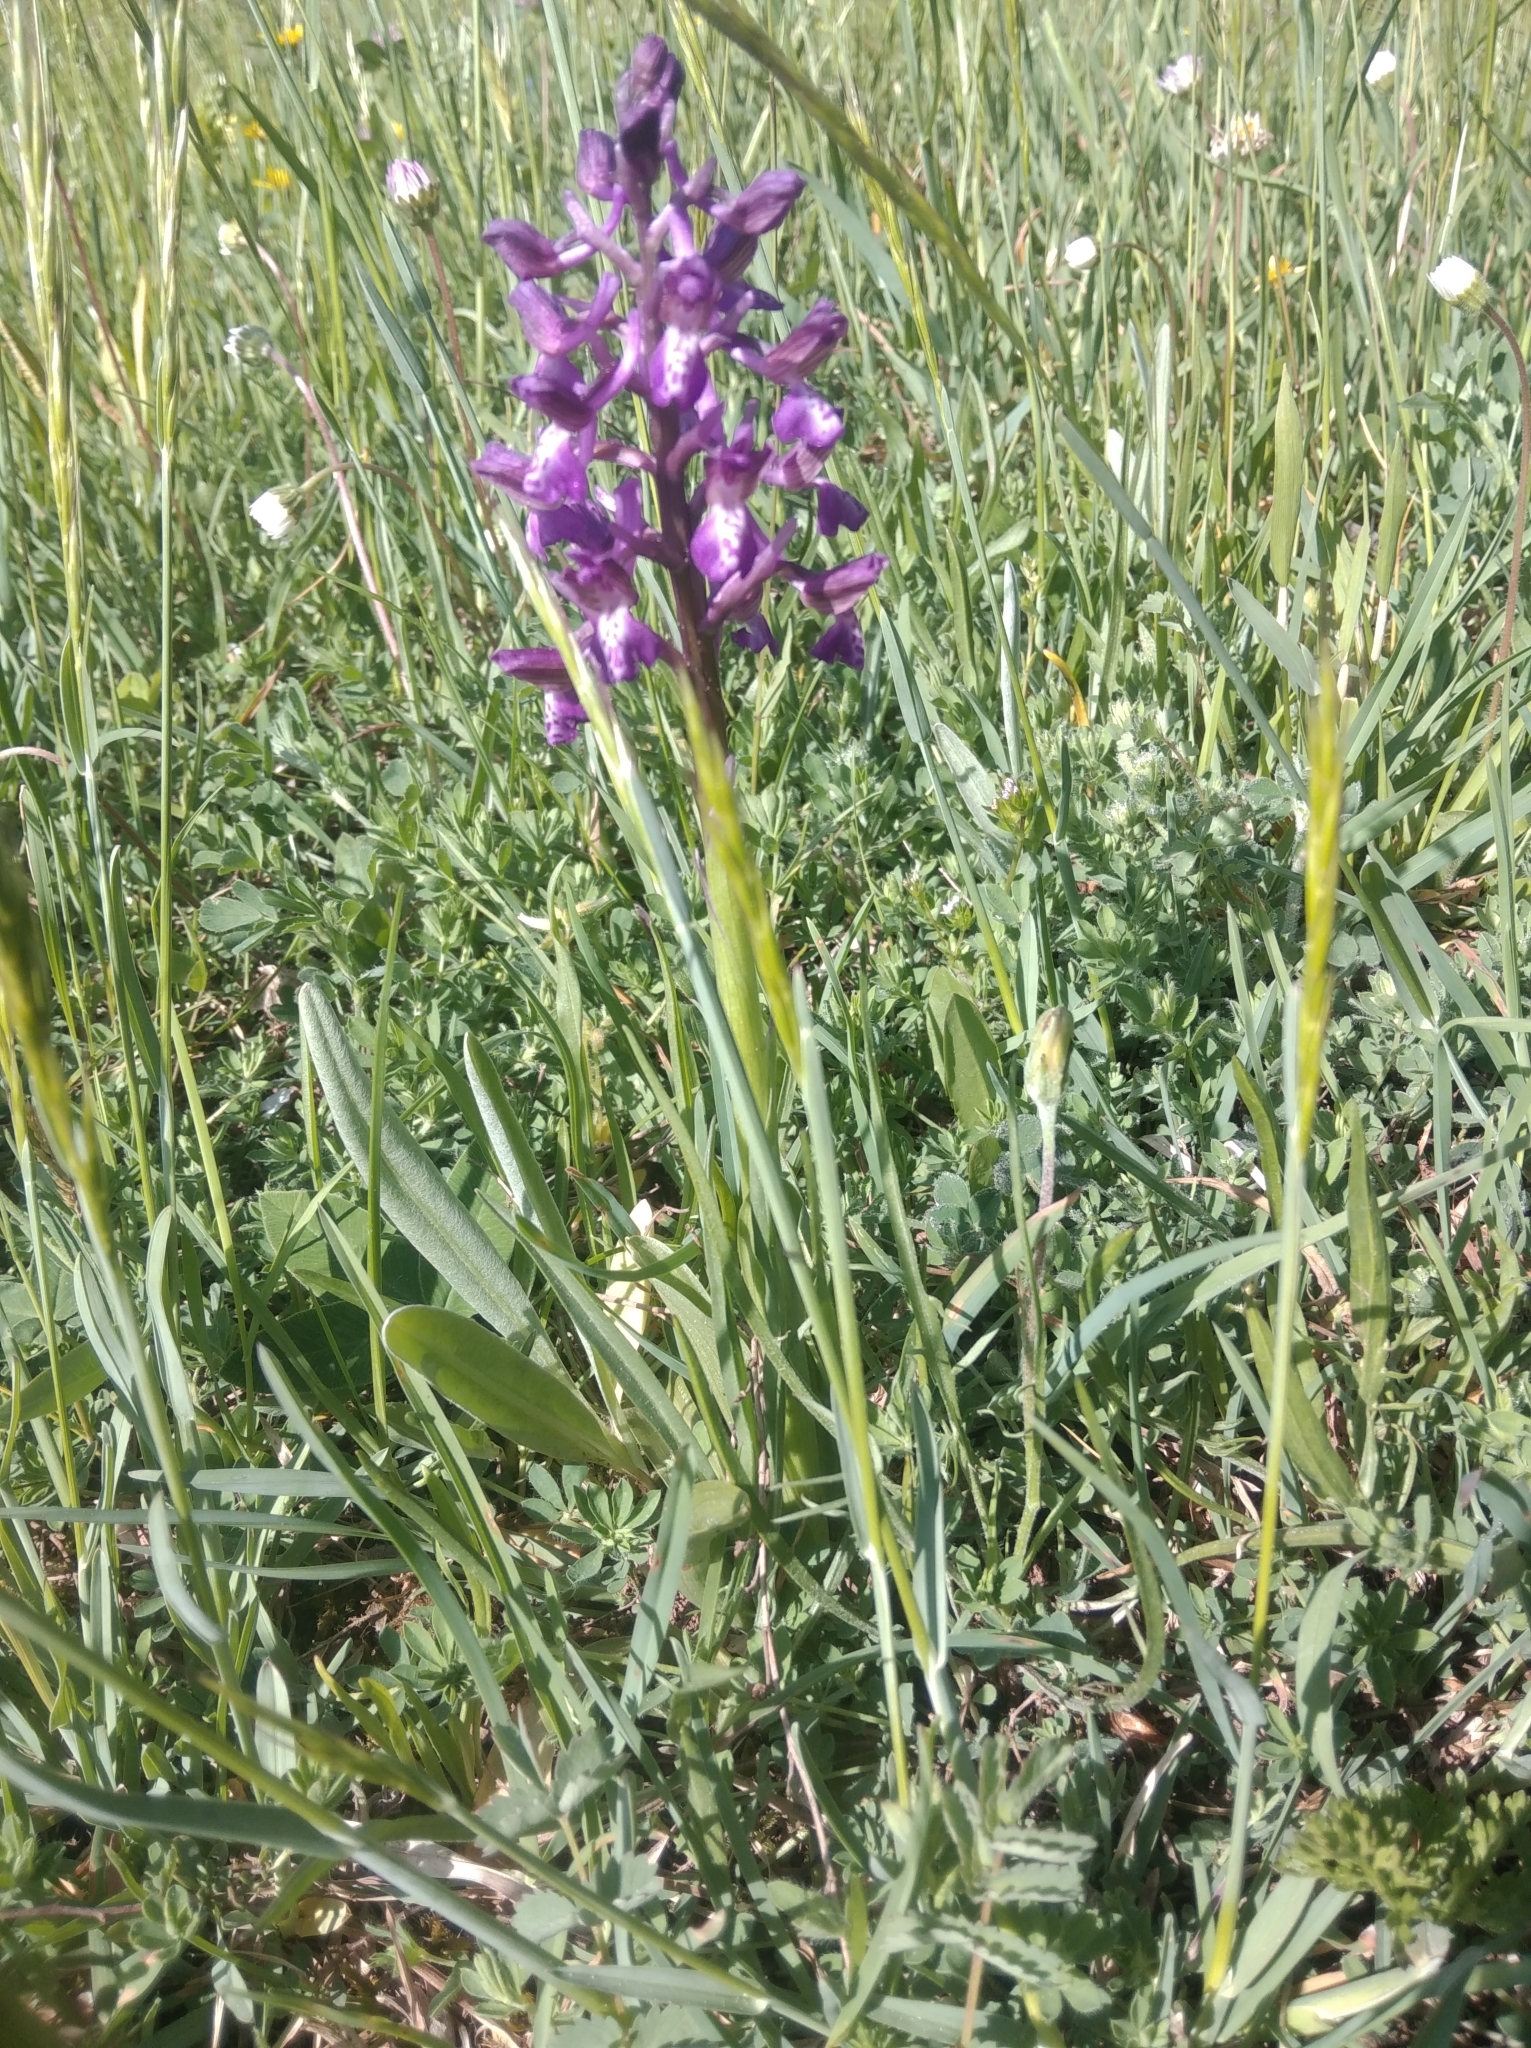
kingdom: Plantae
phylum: Tracheophyta
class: Liliopsida
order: Asparagales
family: Orchidaceae
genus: Anacamptis
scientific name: Anacamptis morio
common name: Green-winged orchid
